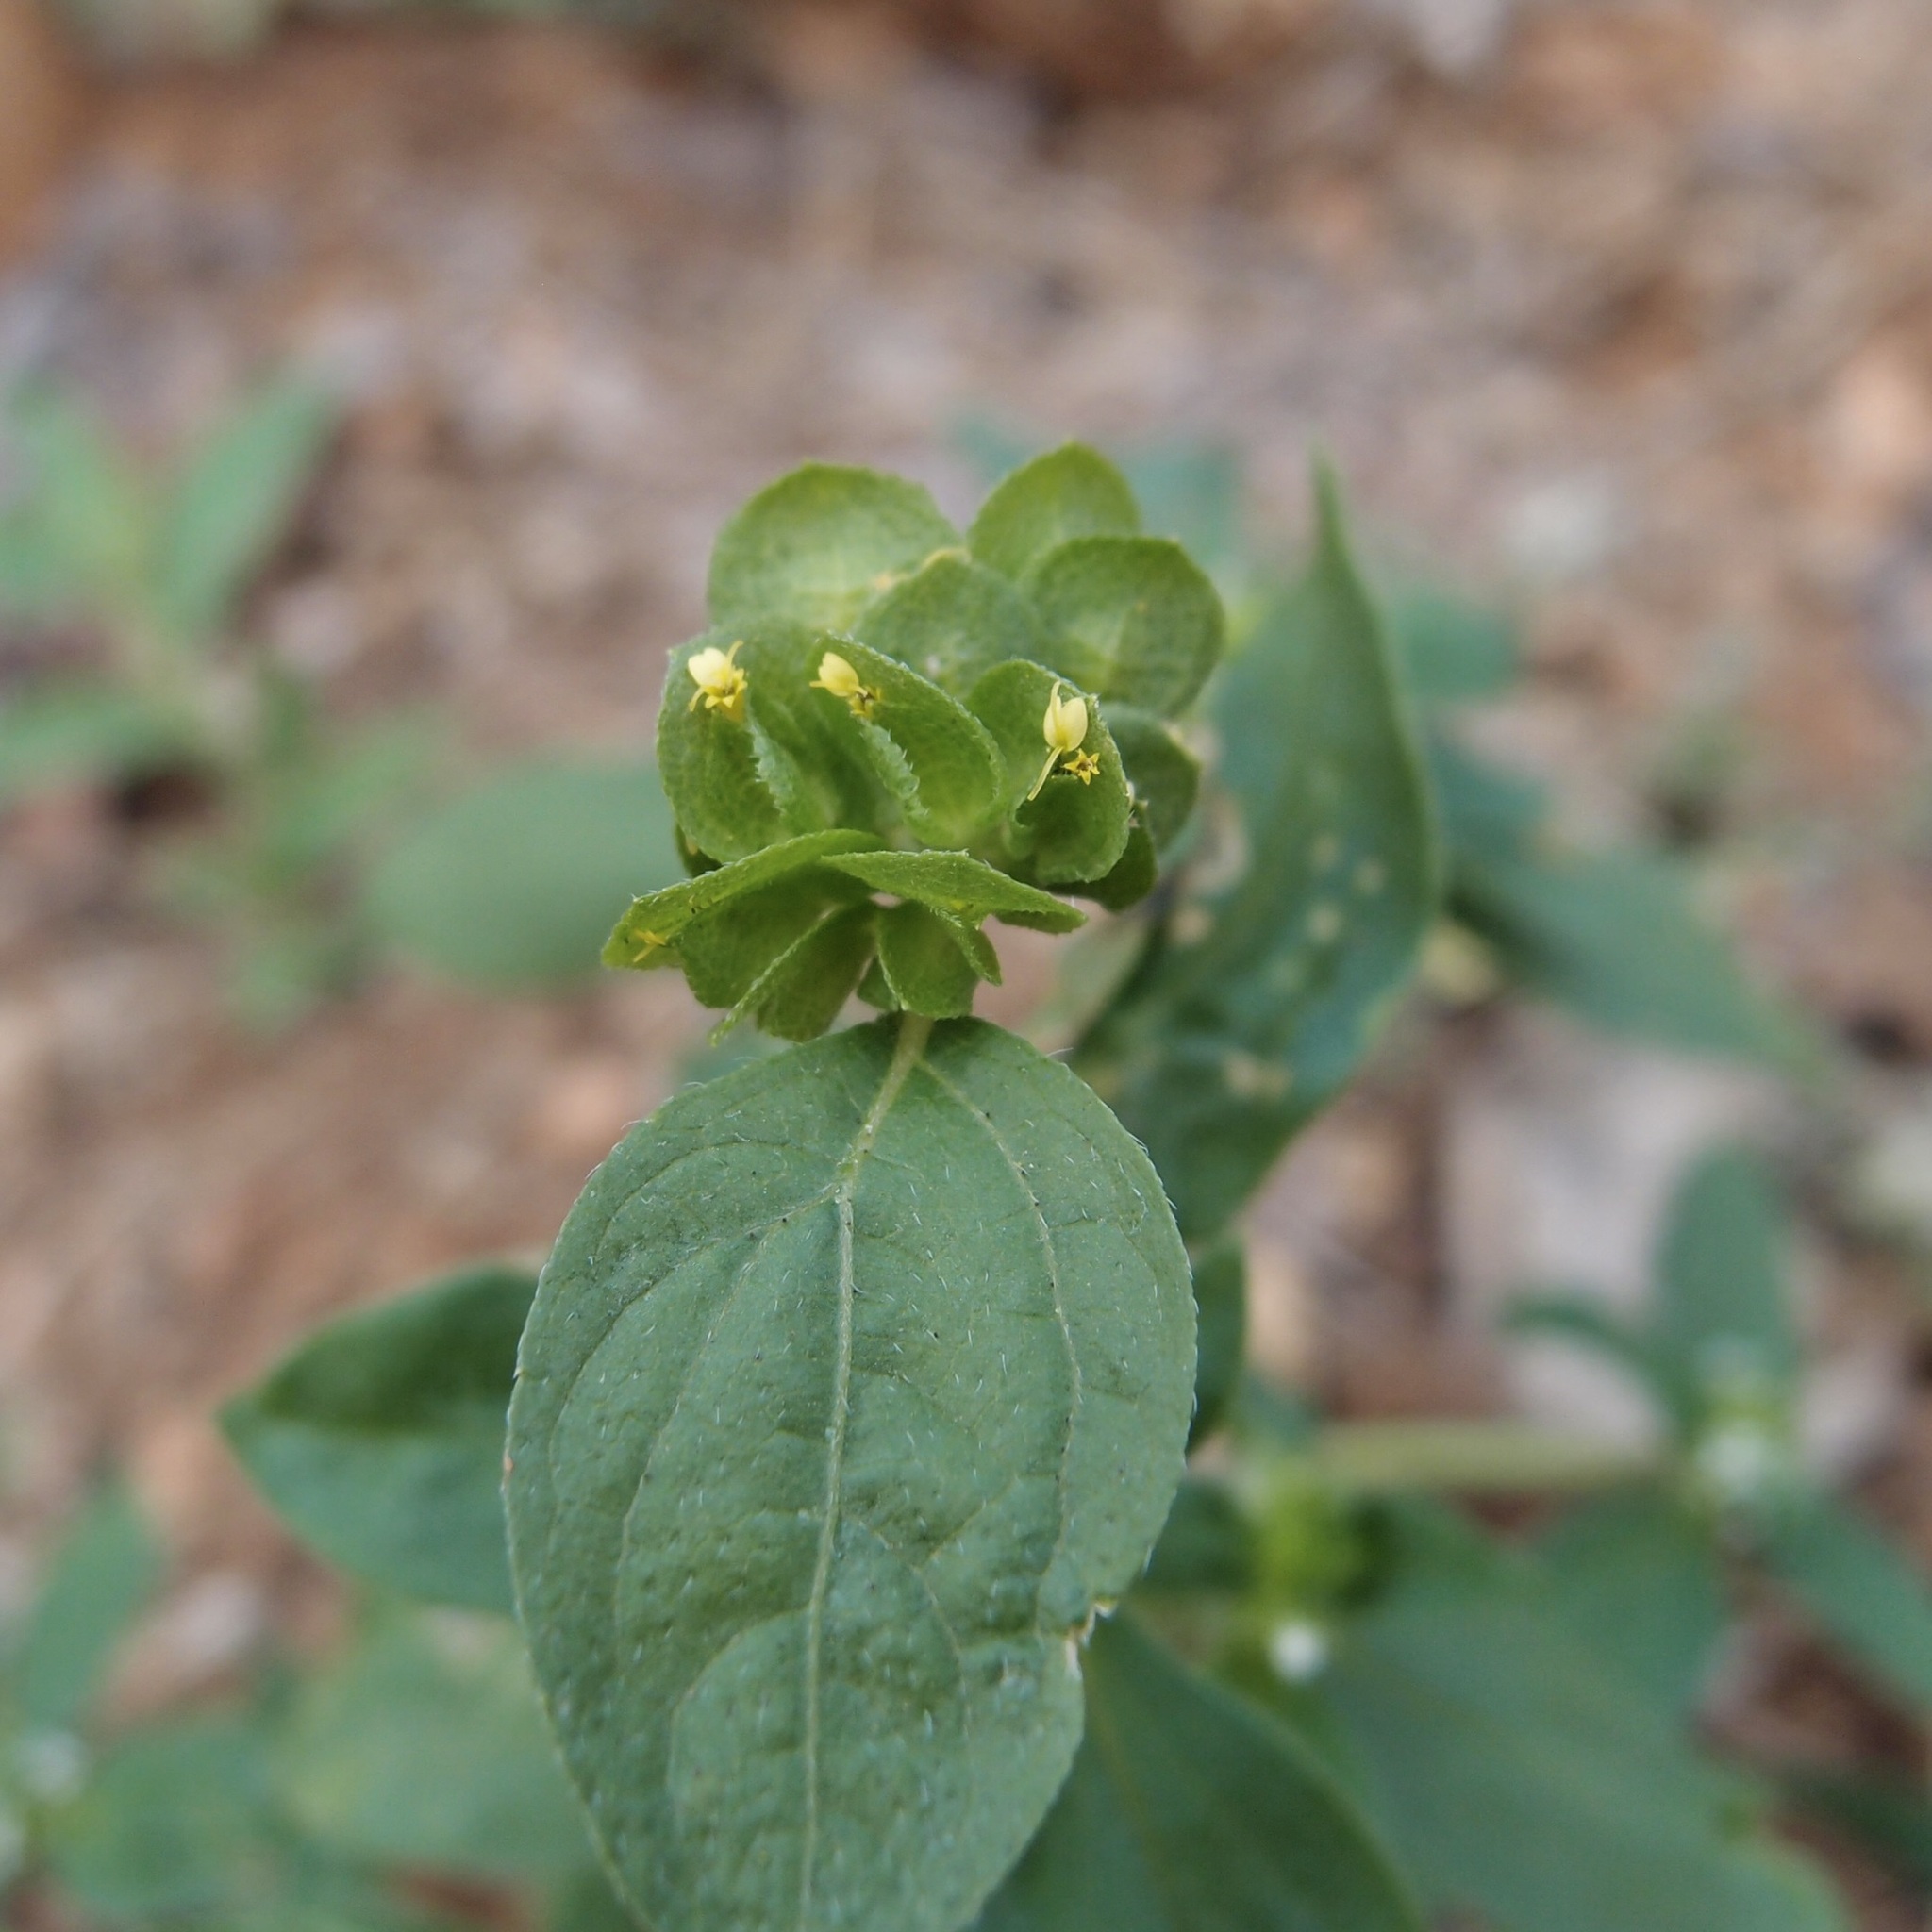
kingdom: Plantae
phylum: Tracheophyta
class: Magnoliopsida
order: Asterales
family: Asteraceae
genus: Delilia
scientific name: Delilia biflora
